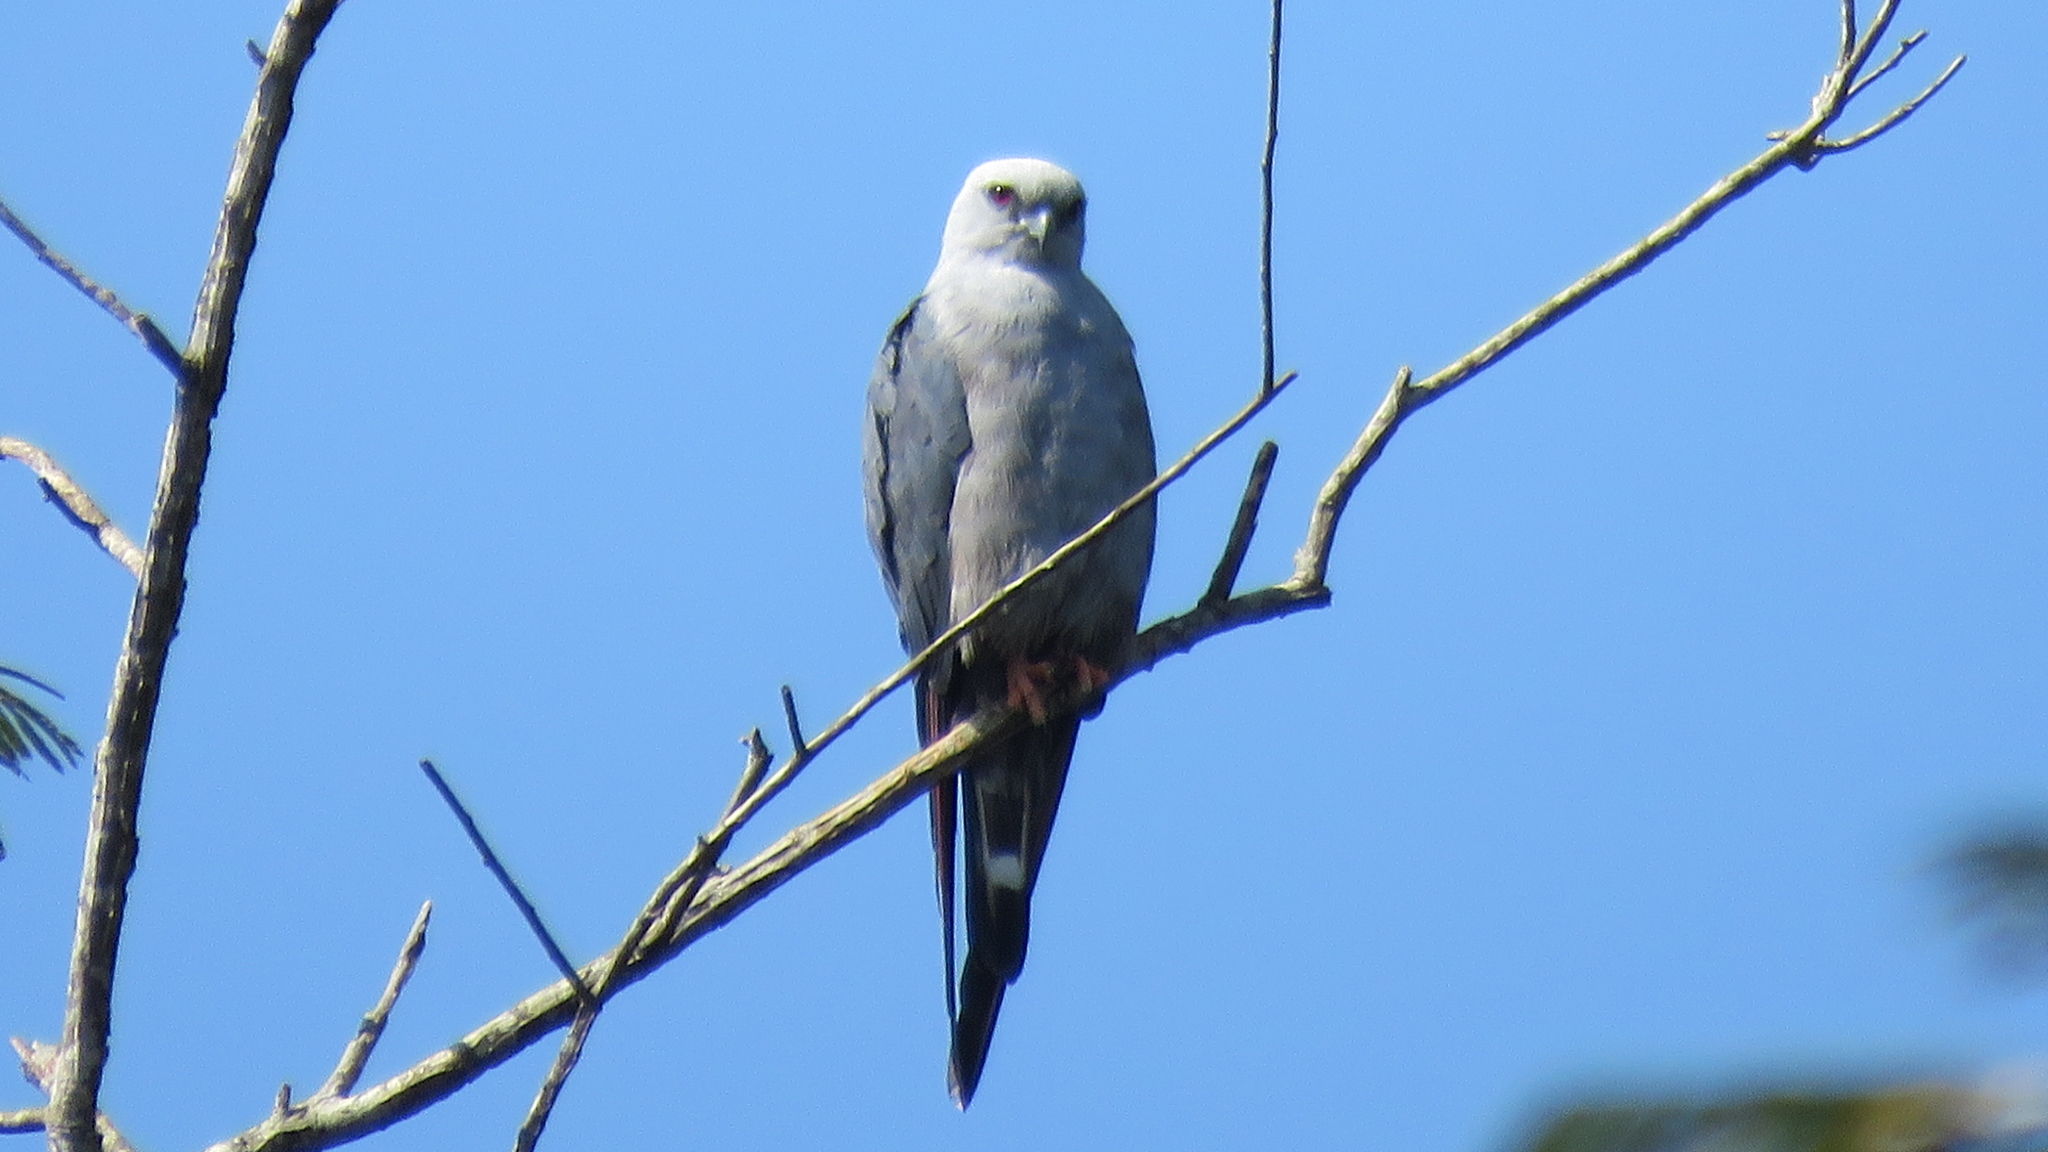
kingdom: Animalia
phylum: Chordata
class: Aves
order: Accipitriformes
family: Accipitridae
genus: Ictinia
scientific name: Ictinia plumbea
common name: Plumbeous kite
